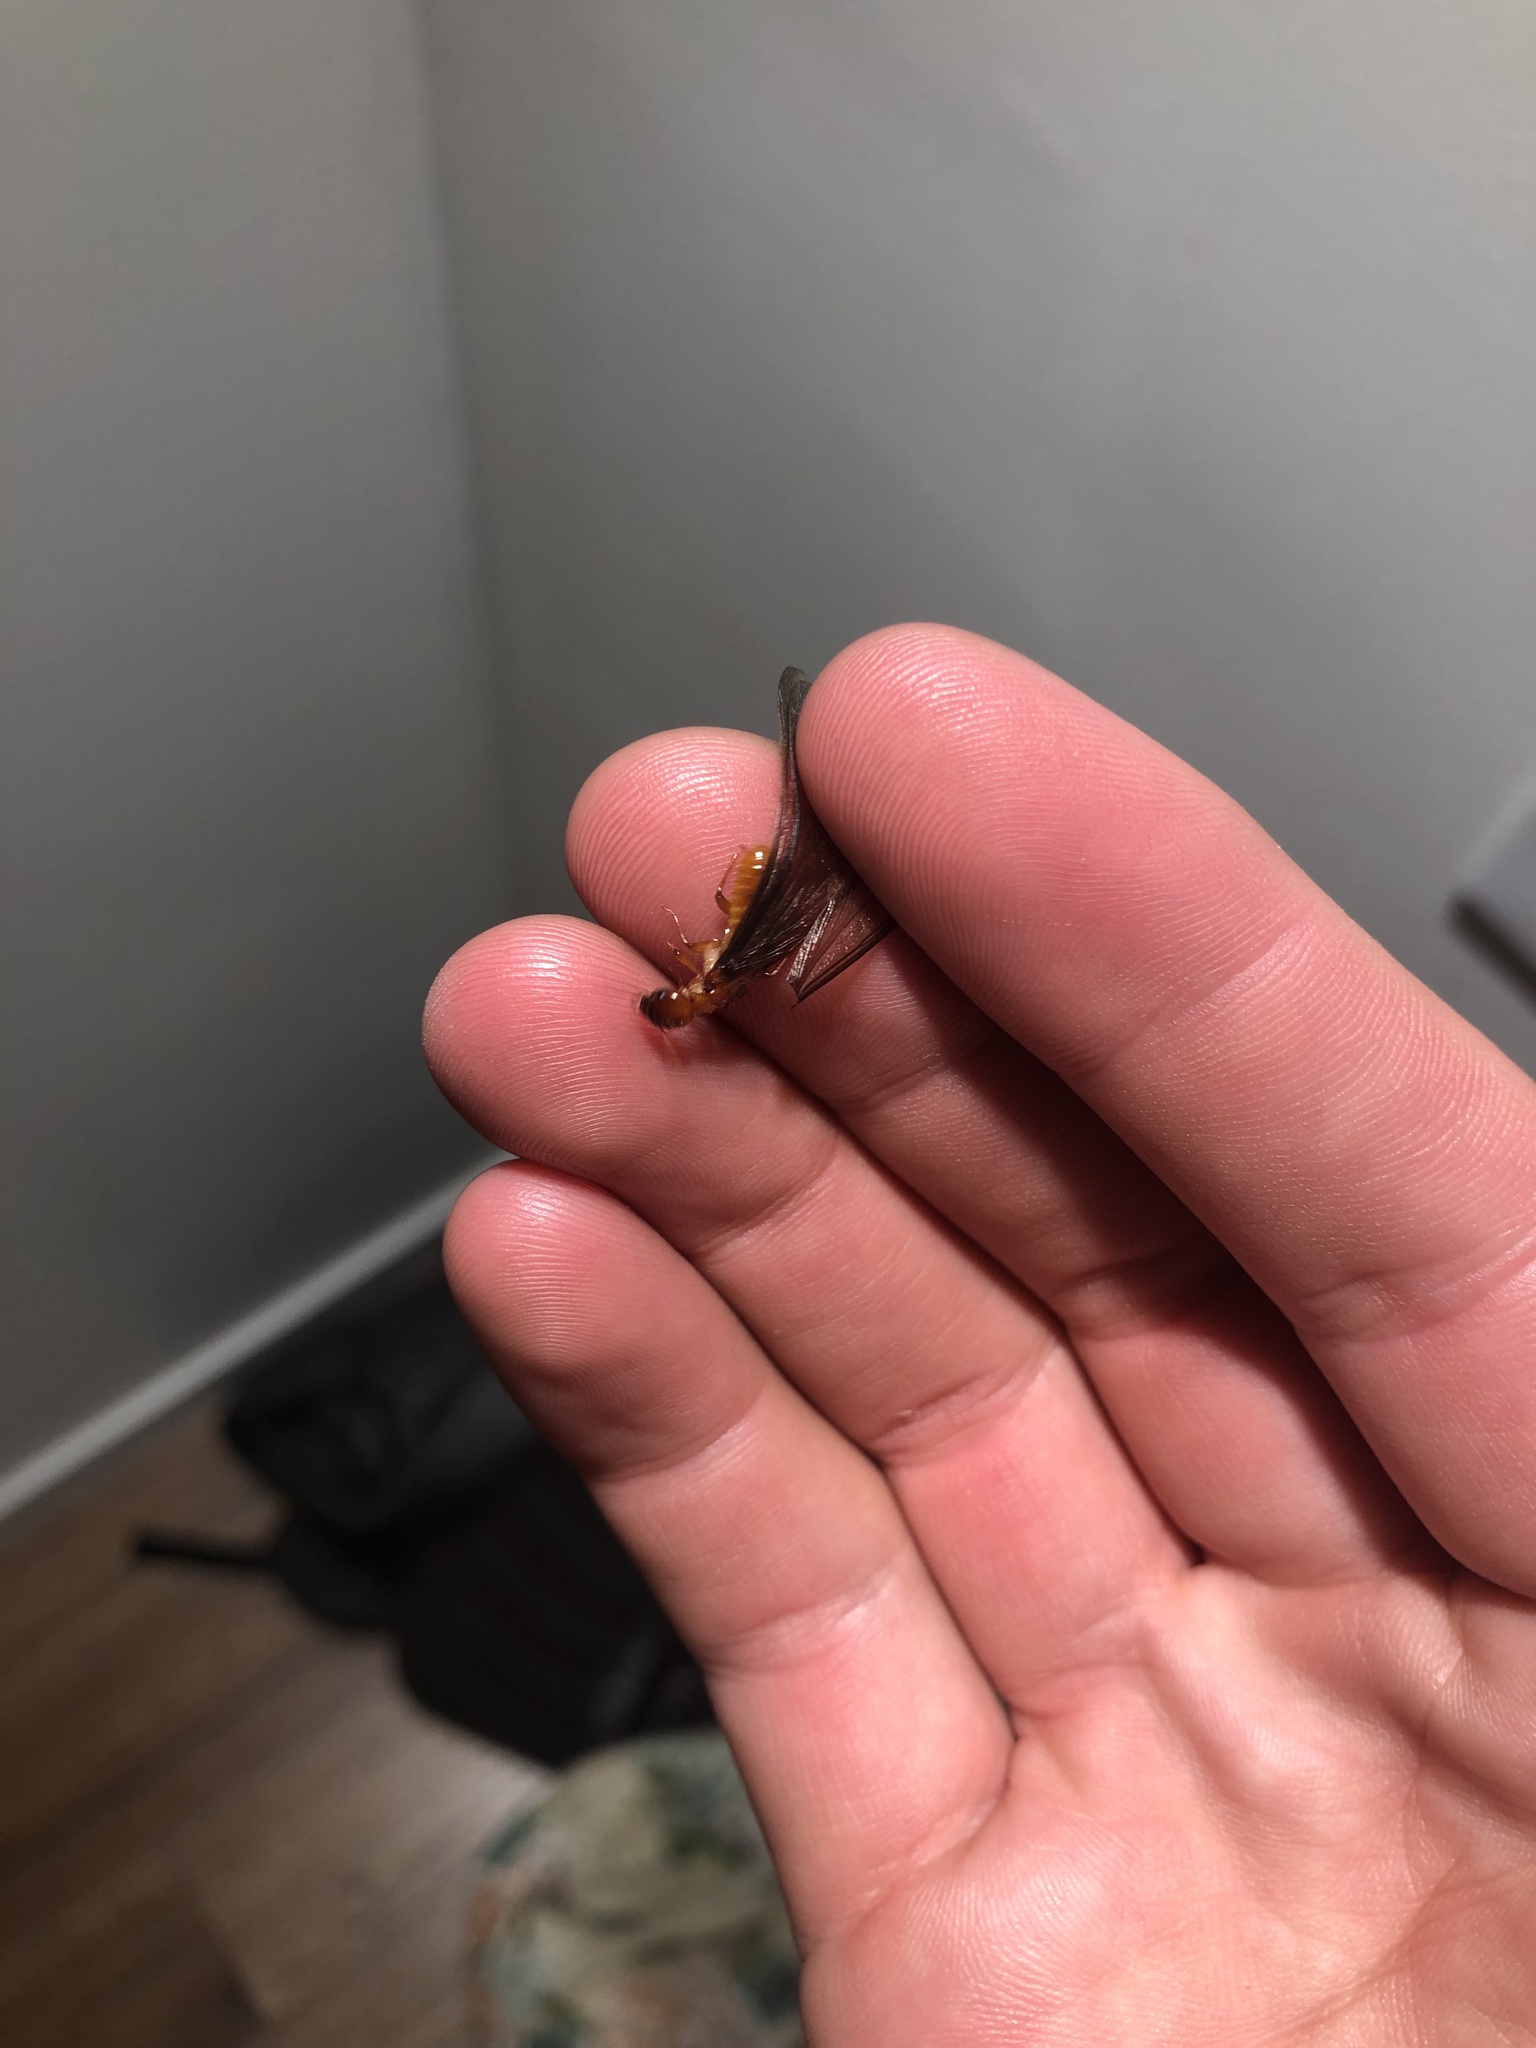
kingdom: Animalia
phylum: Arthropoda
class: Insecta
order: Blattodea
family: Archotermopsidae
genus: Zootermopsis
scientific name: Zootermopsis angusticollis
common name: Rottenwood termite
